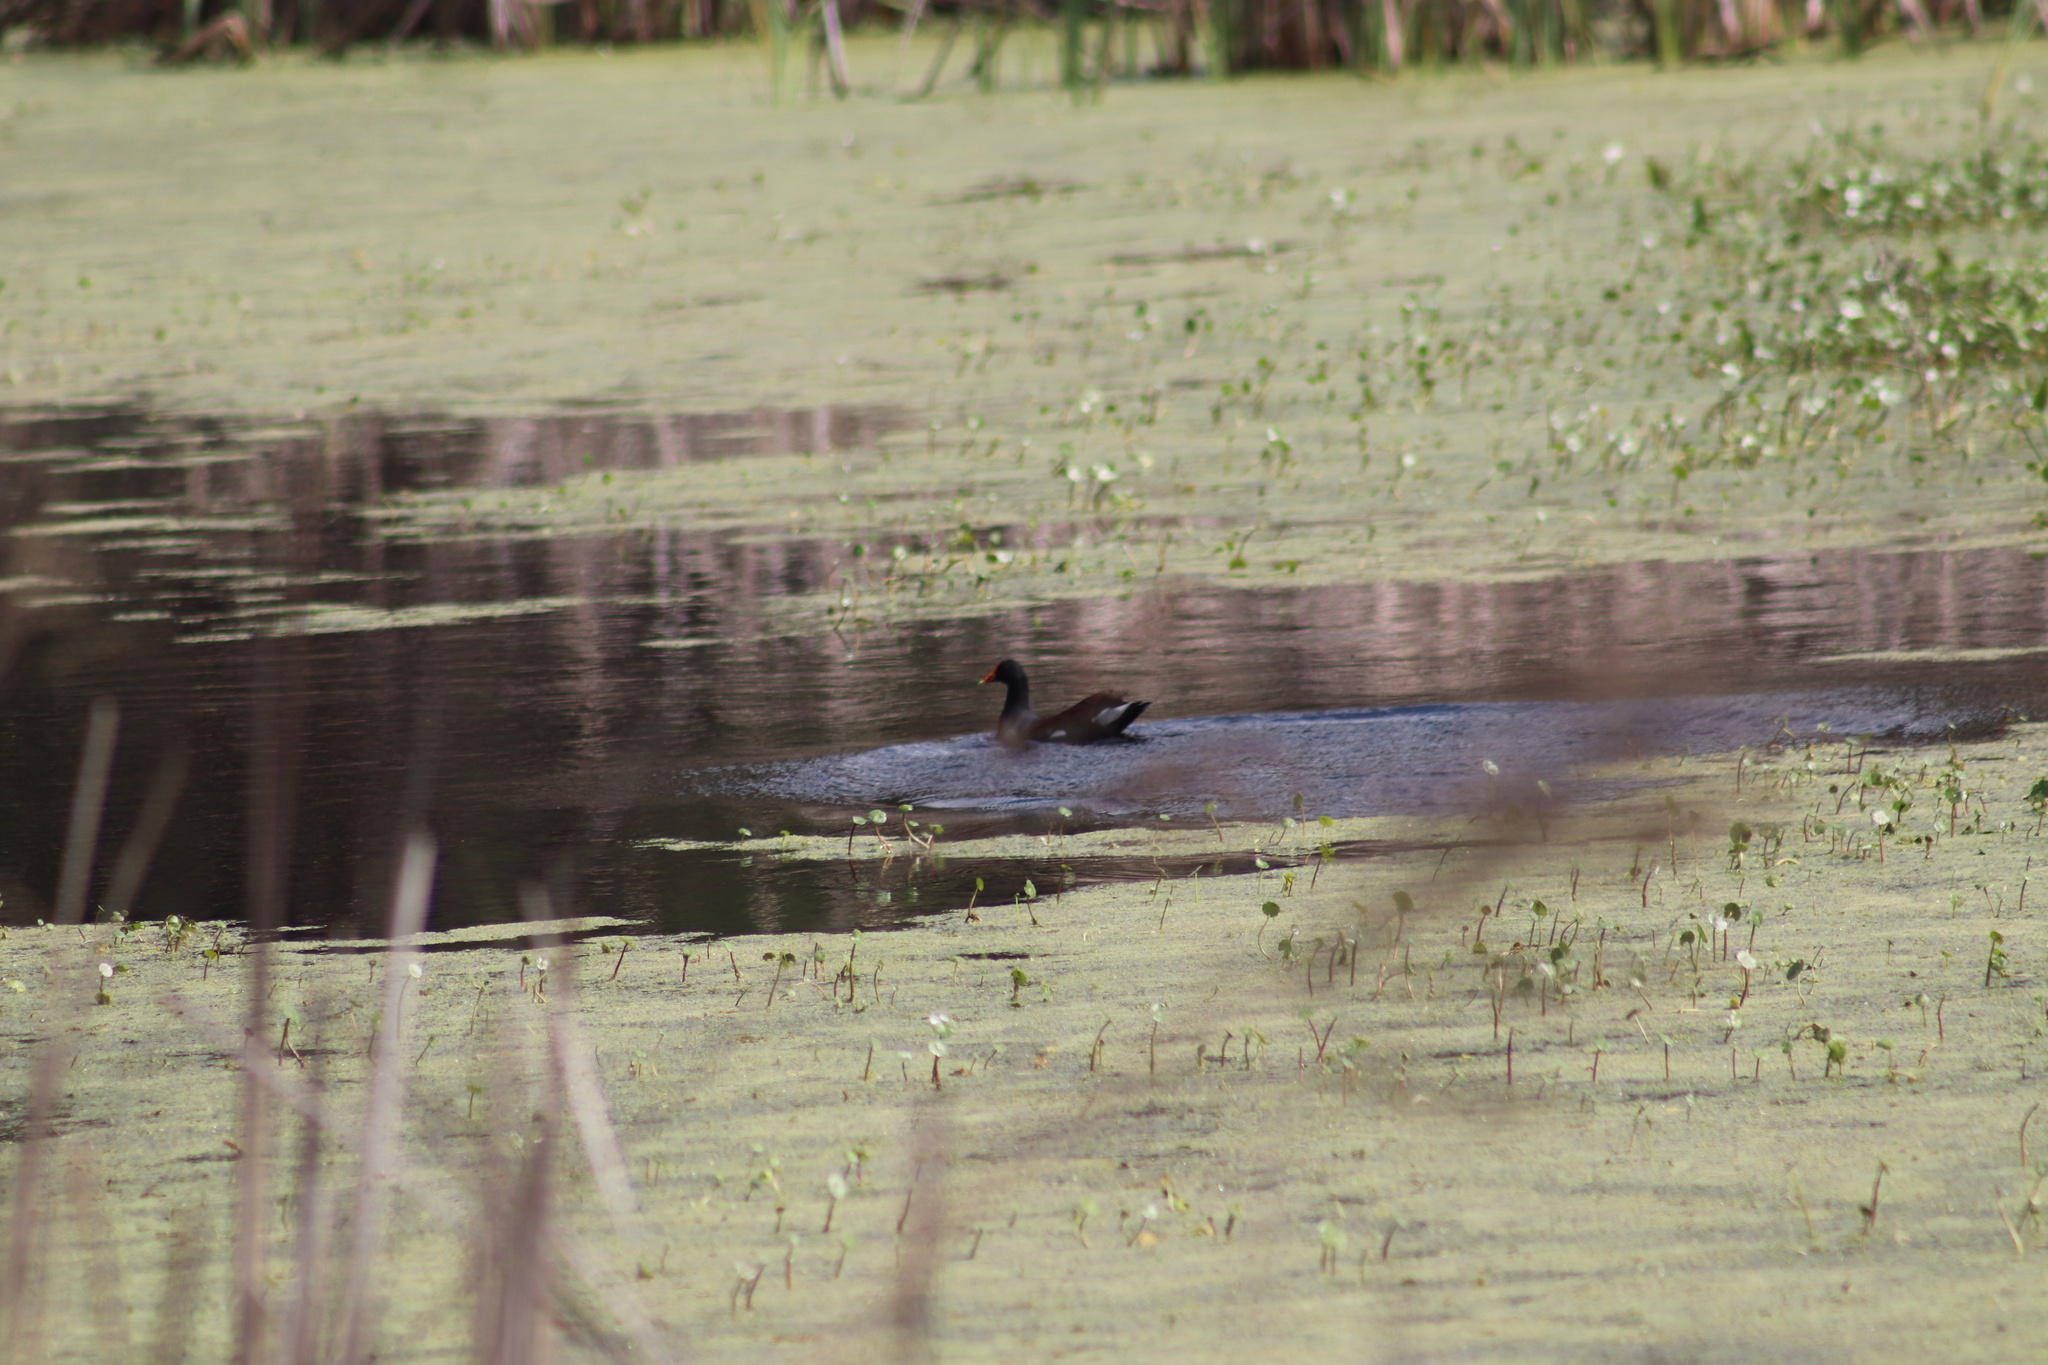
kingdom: Animalia
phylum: Chordata
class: Aves
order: Gruiformes
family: Rallidae
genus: Gallinula
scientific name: Gallinula chloropus
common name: Common moorhen
